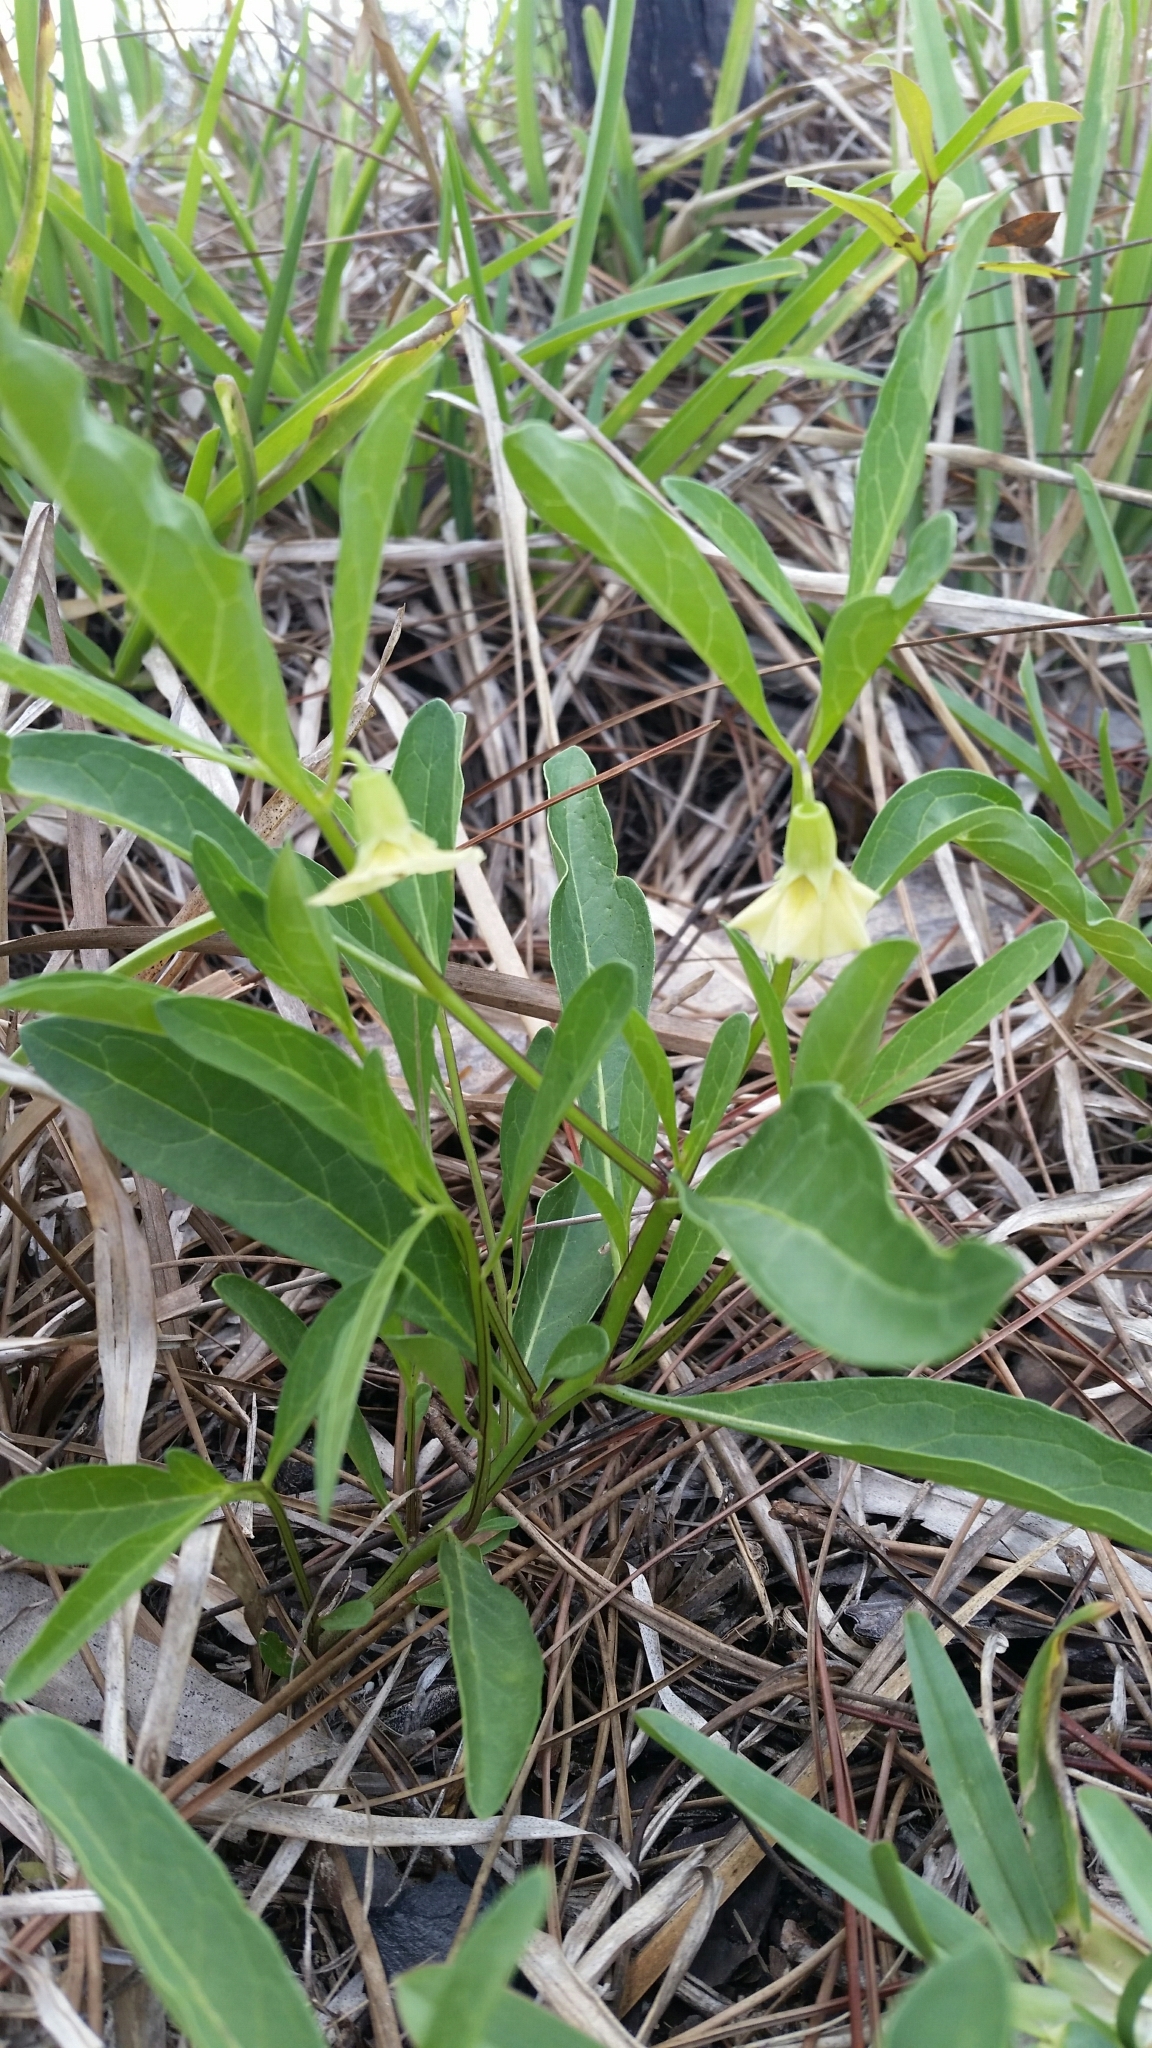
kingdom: Plantae
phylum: Tracheophyta
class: Magnoliopsida
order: Solanales
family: Solanaceae
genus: Physalis
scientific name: Physalis walteri
